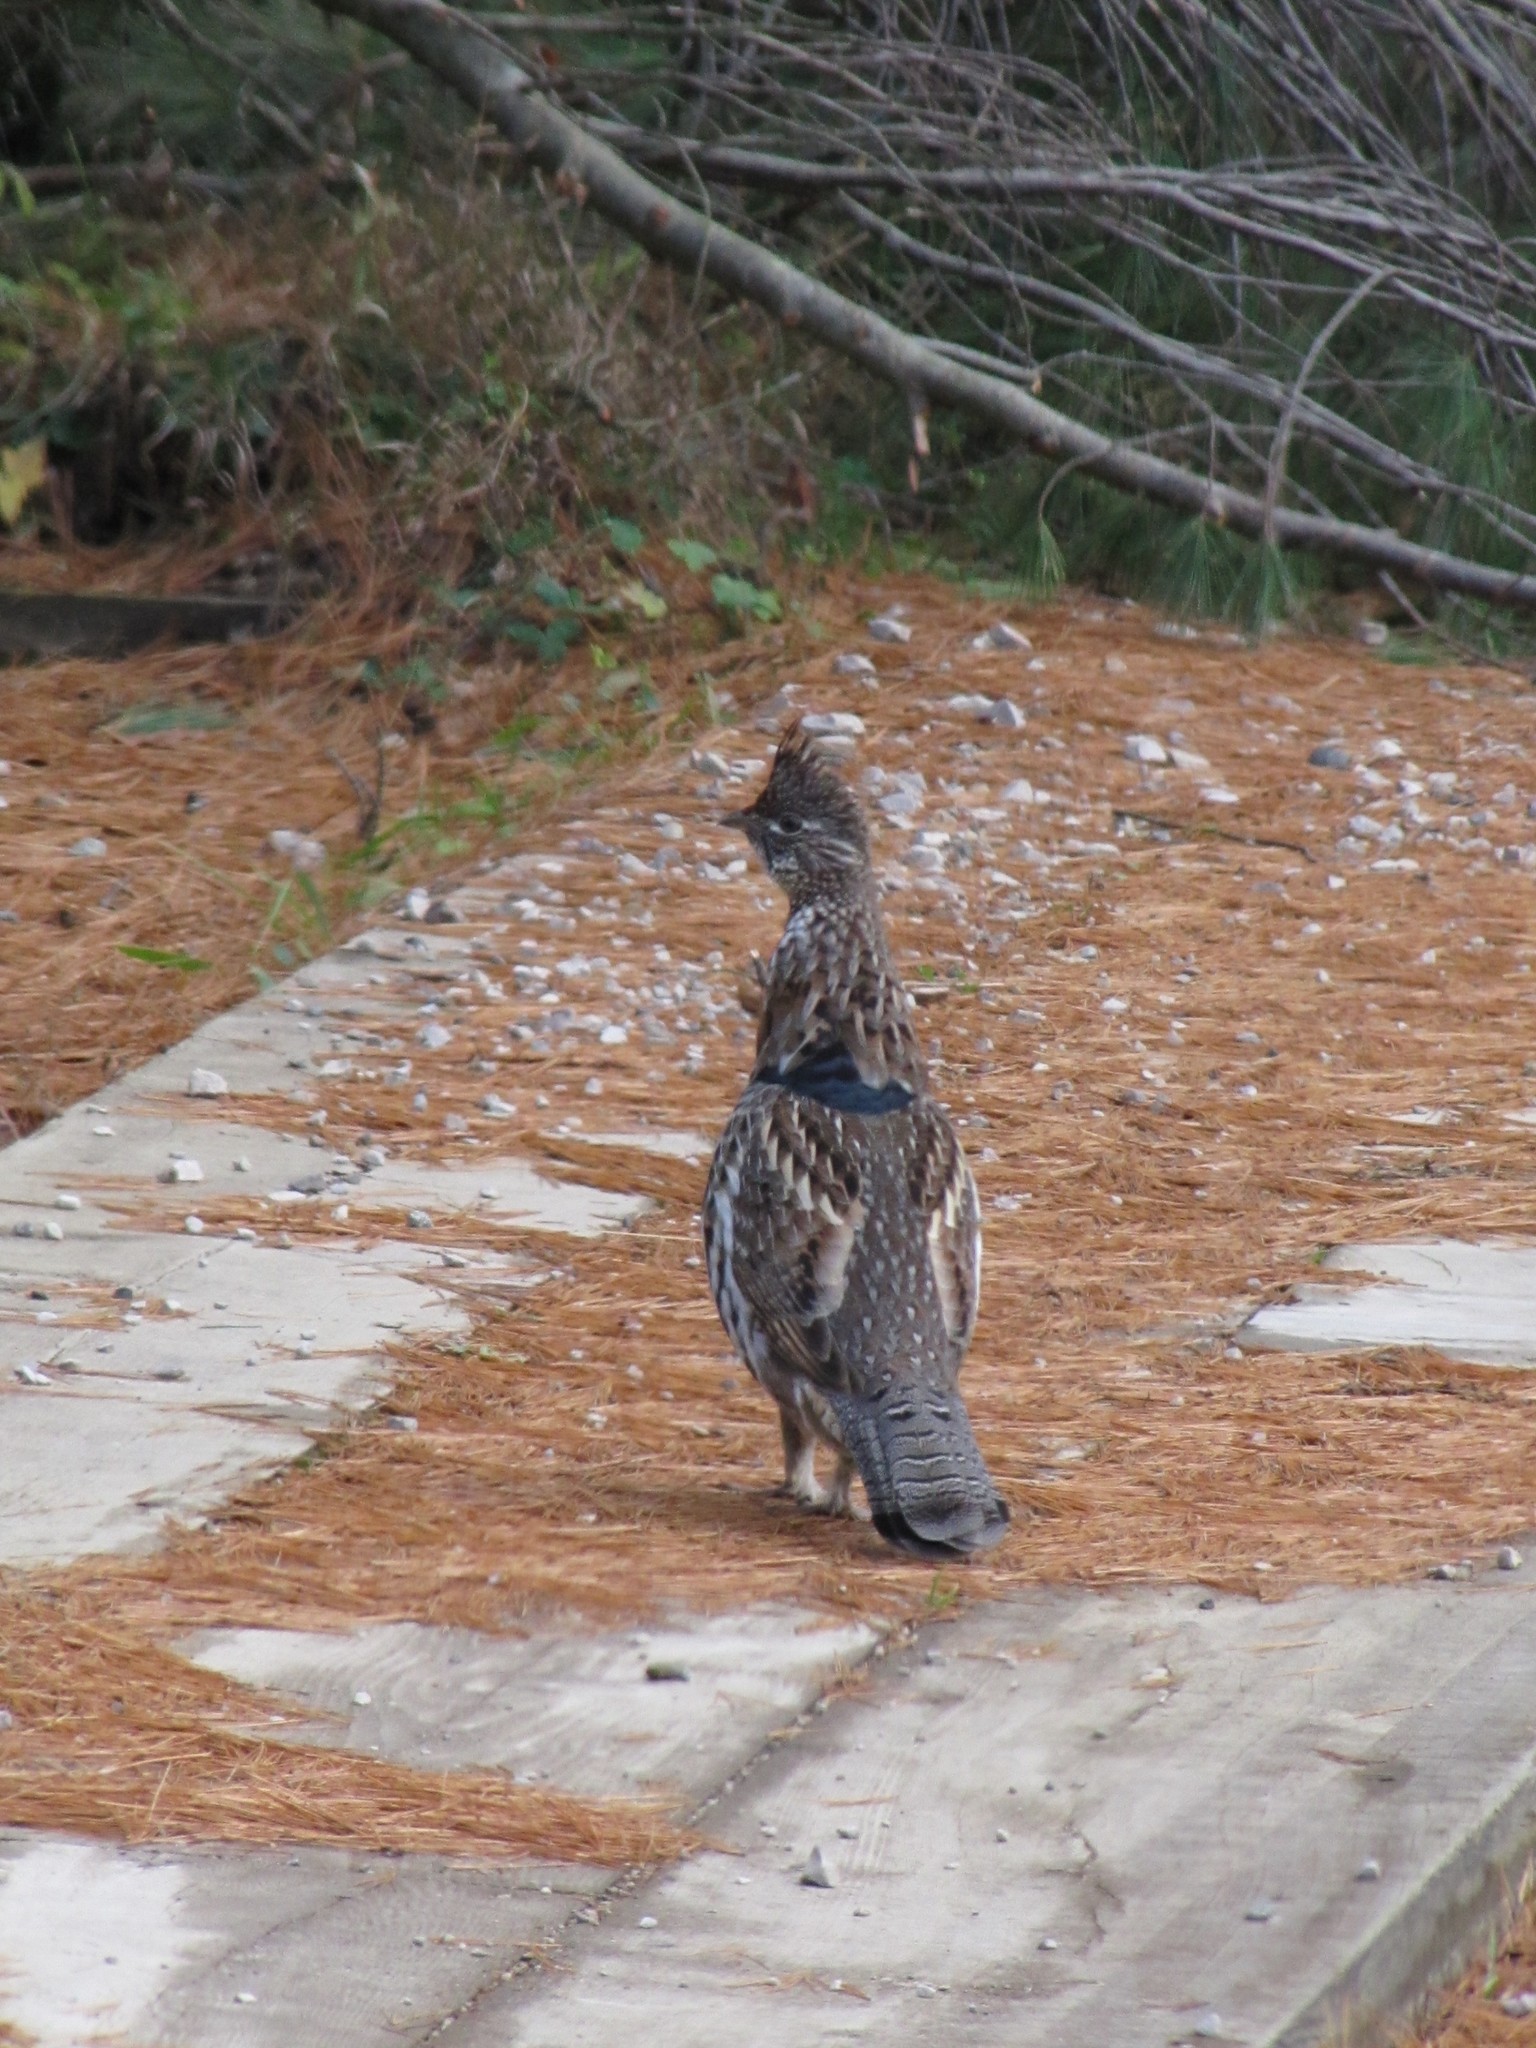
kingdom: Animalia
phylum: Chordata
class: Aves
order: Galliformes
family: Phasianidae
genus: Bonasa
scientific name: Bonasa umbellus
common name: Ruffed grouse
